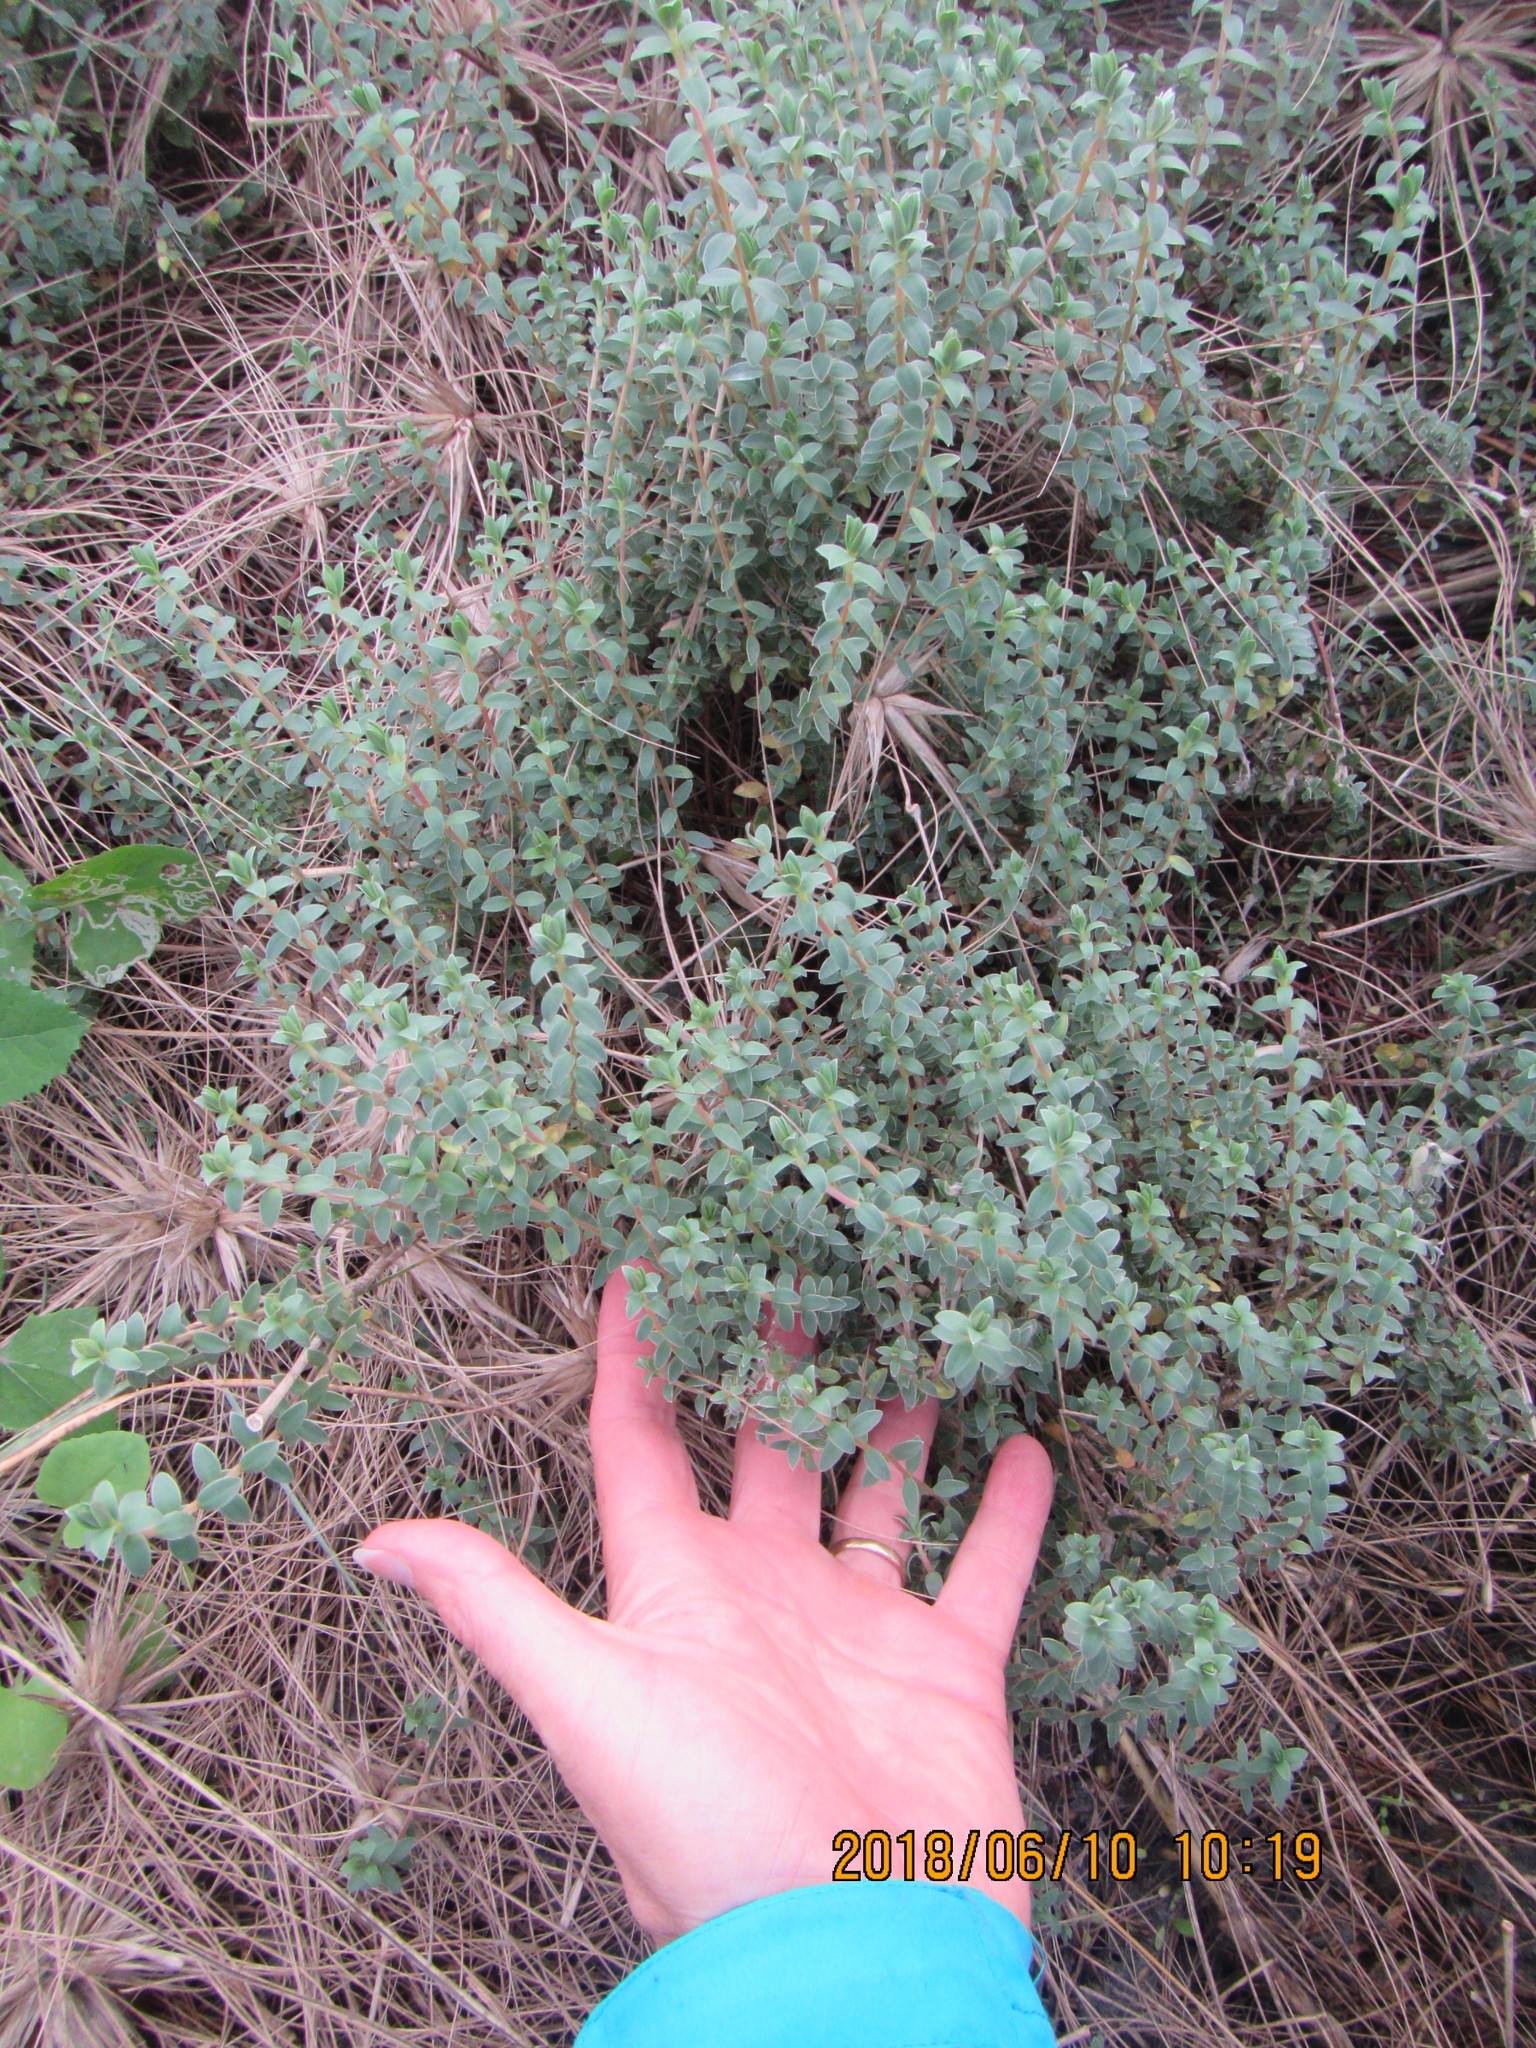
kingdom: Plantae
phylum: Tracheophyta
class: Magnoliopsida
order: Malvales
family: Thymelaeaceae
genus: Pimelea
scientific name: Pimelea villosa
